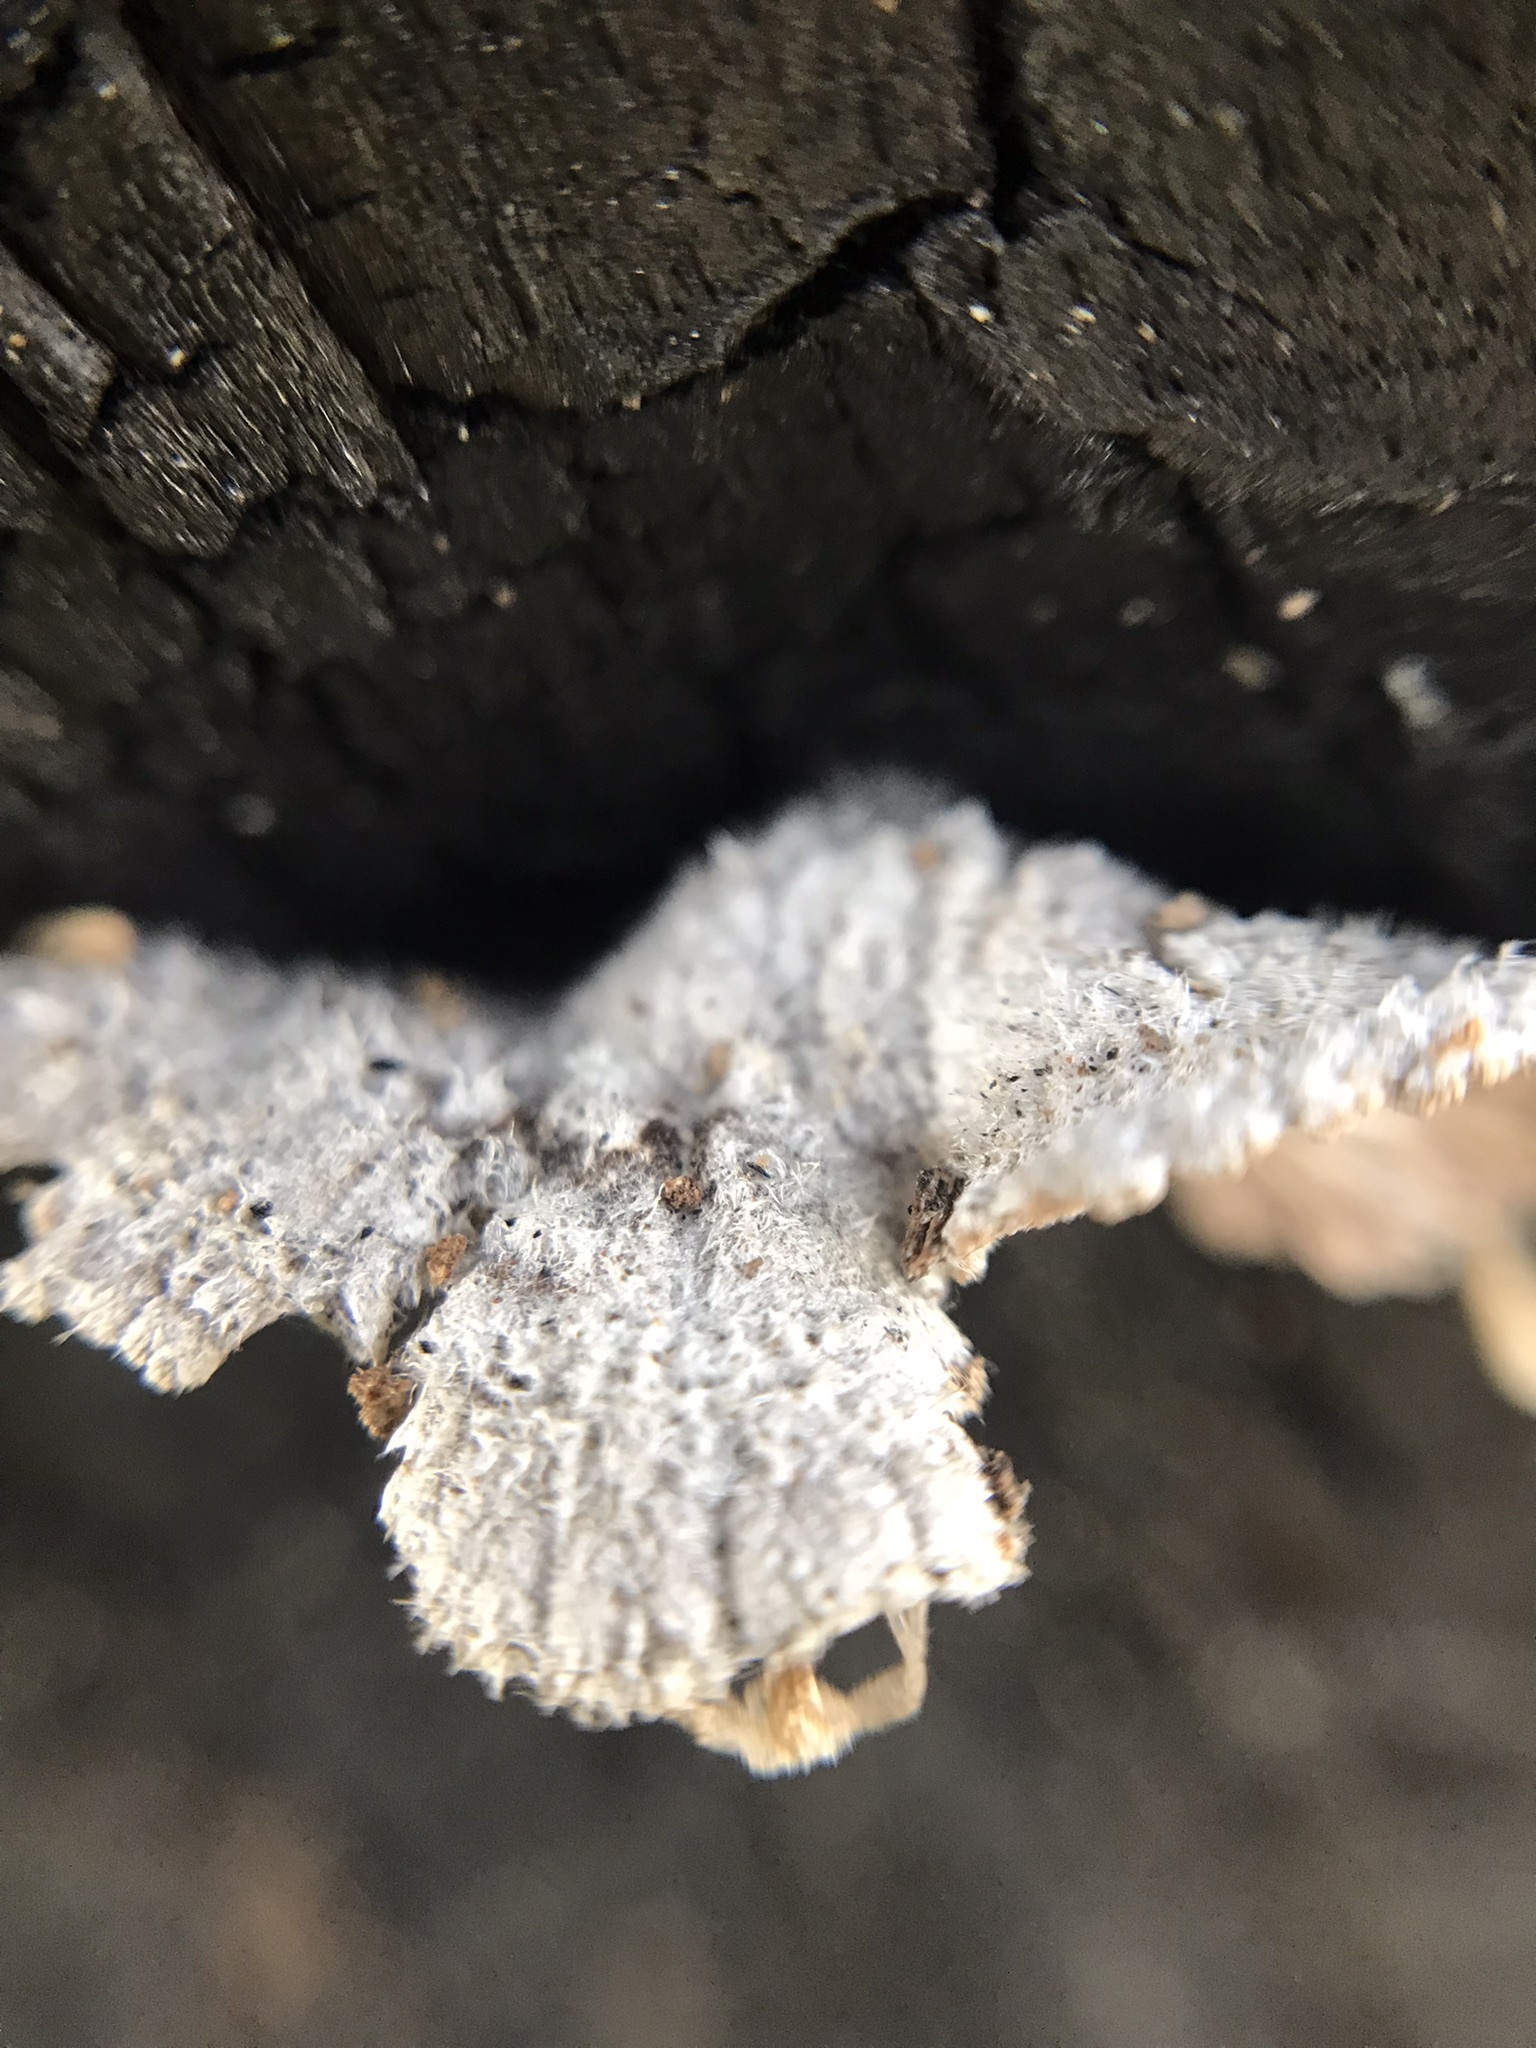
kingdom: Fungi
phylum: Basidiomycota
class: Agaricomycetes
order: Agaricales
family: Schizophyllaceae
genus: Schizophyllum
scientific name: Schizophyllum commune
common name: Common porecrust
